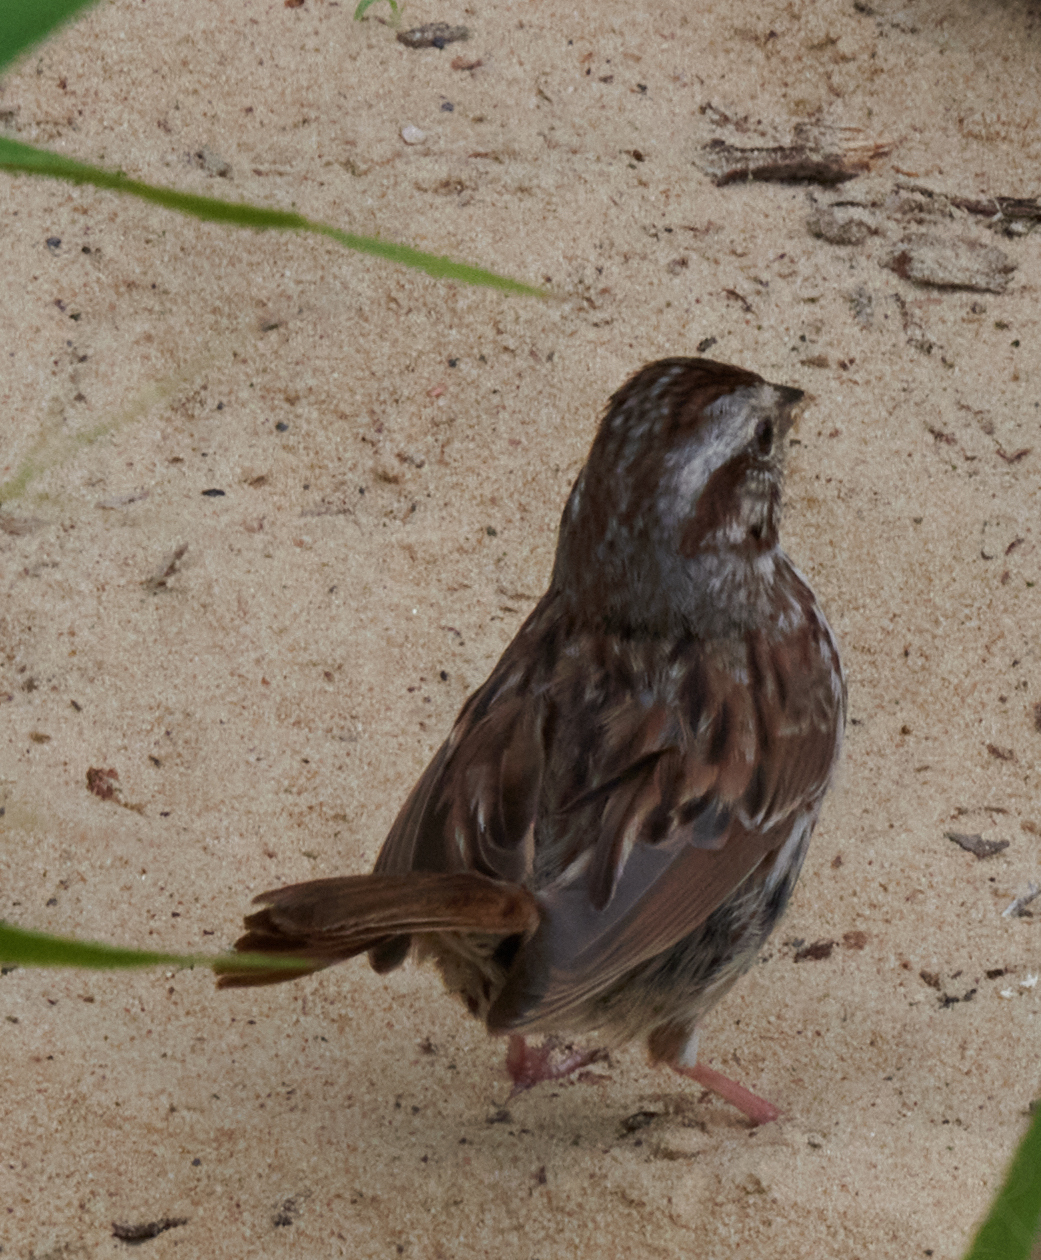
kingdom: Animalia
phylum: Chordata
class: Aves
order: Passeriformes
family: Passerellidae
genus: Melospiza
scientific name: Melospiza melodia
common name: Song sparrow
